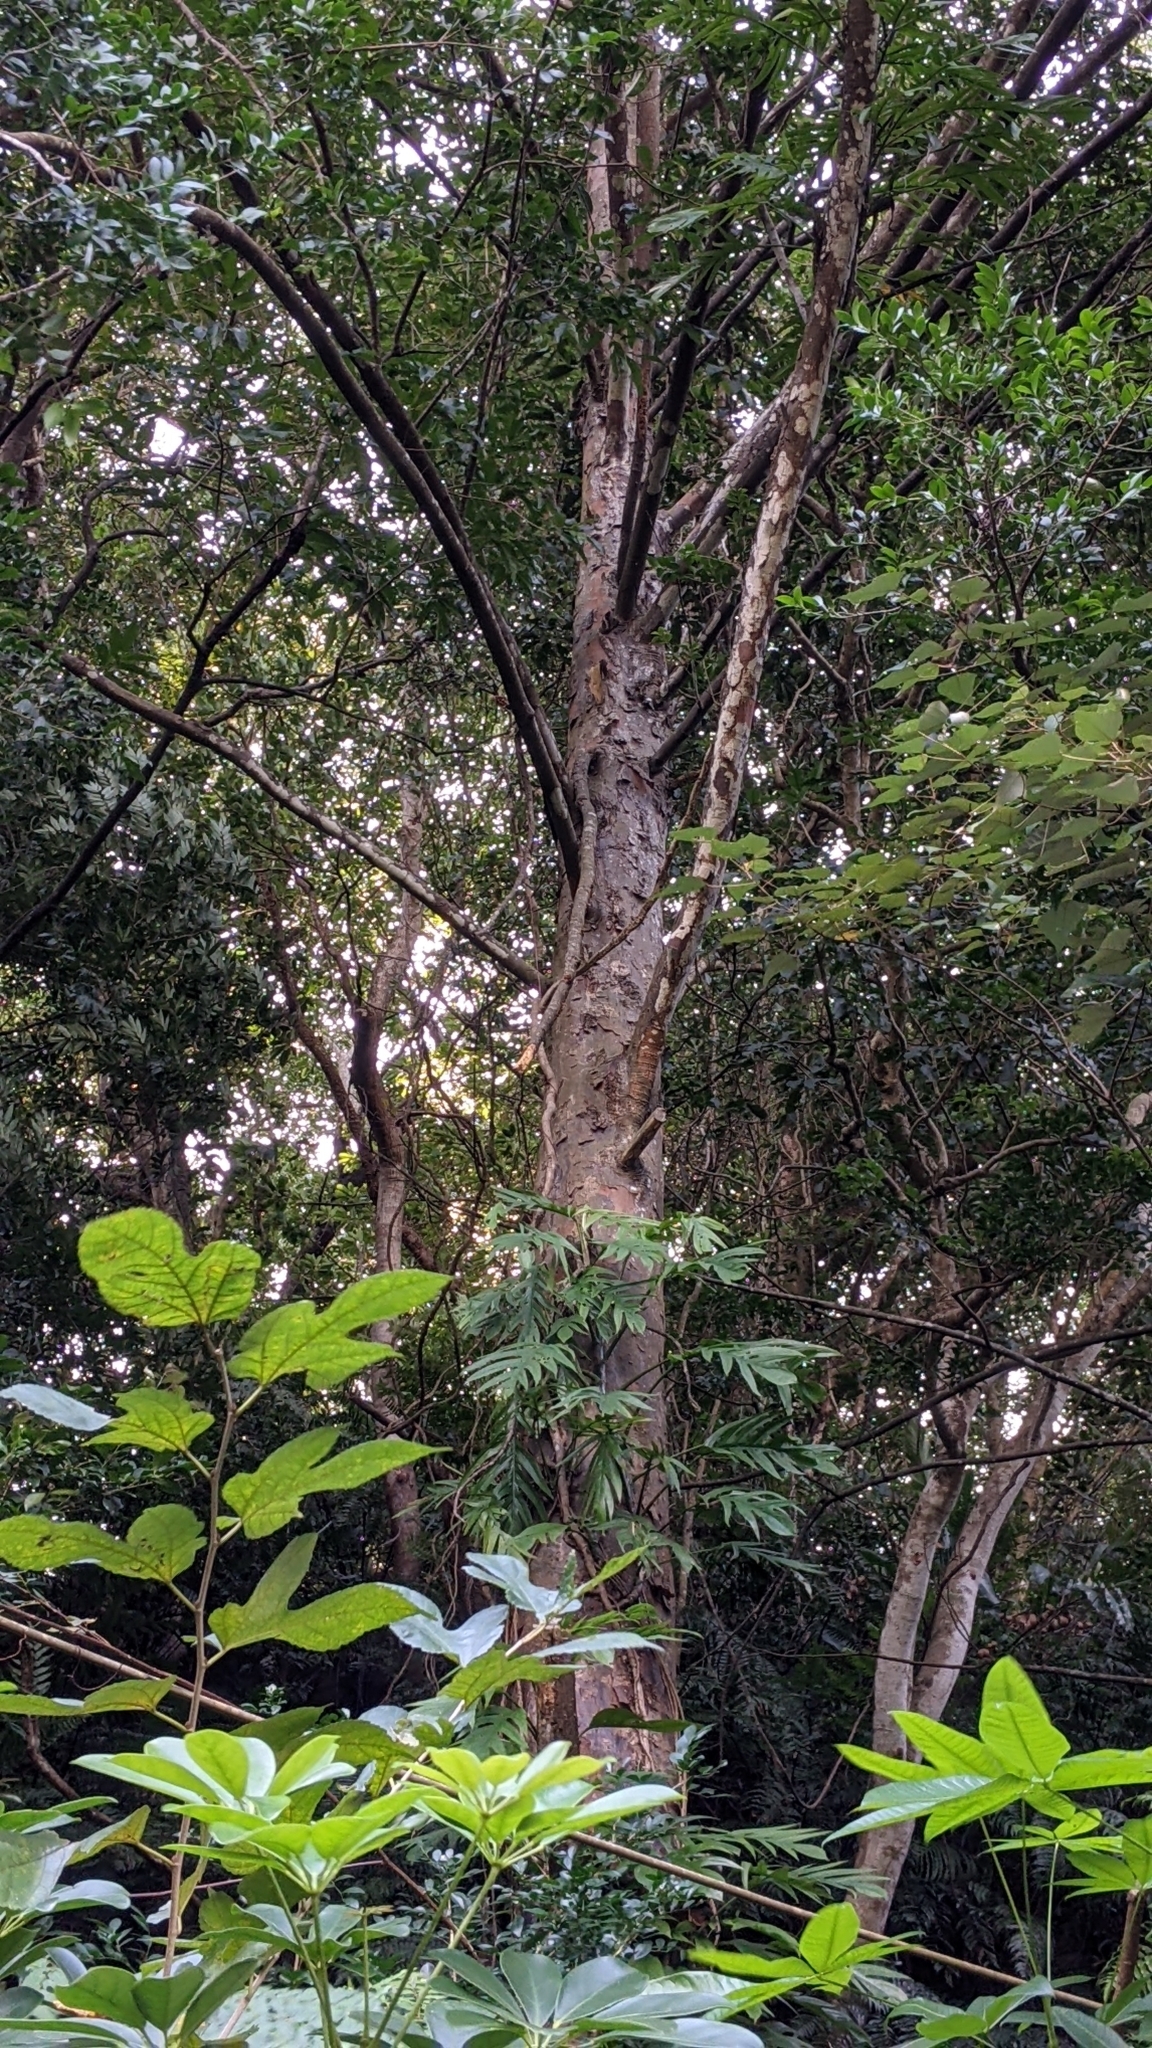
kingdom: Plantae
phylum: Tracheophyta
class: Pinopsida
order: Pinales
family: Podocarpaceae
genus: Nageia
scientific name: Nageia nagi
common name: Kaphal
